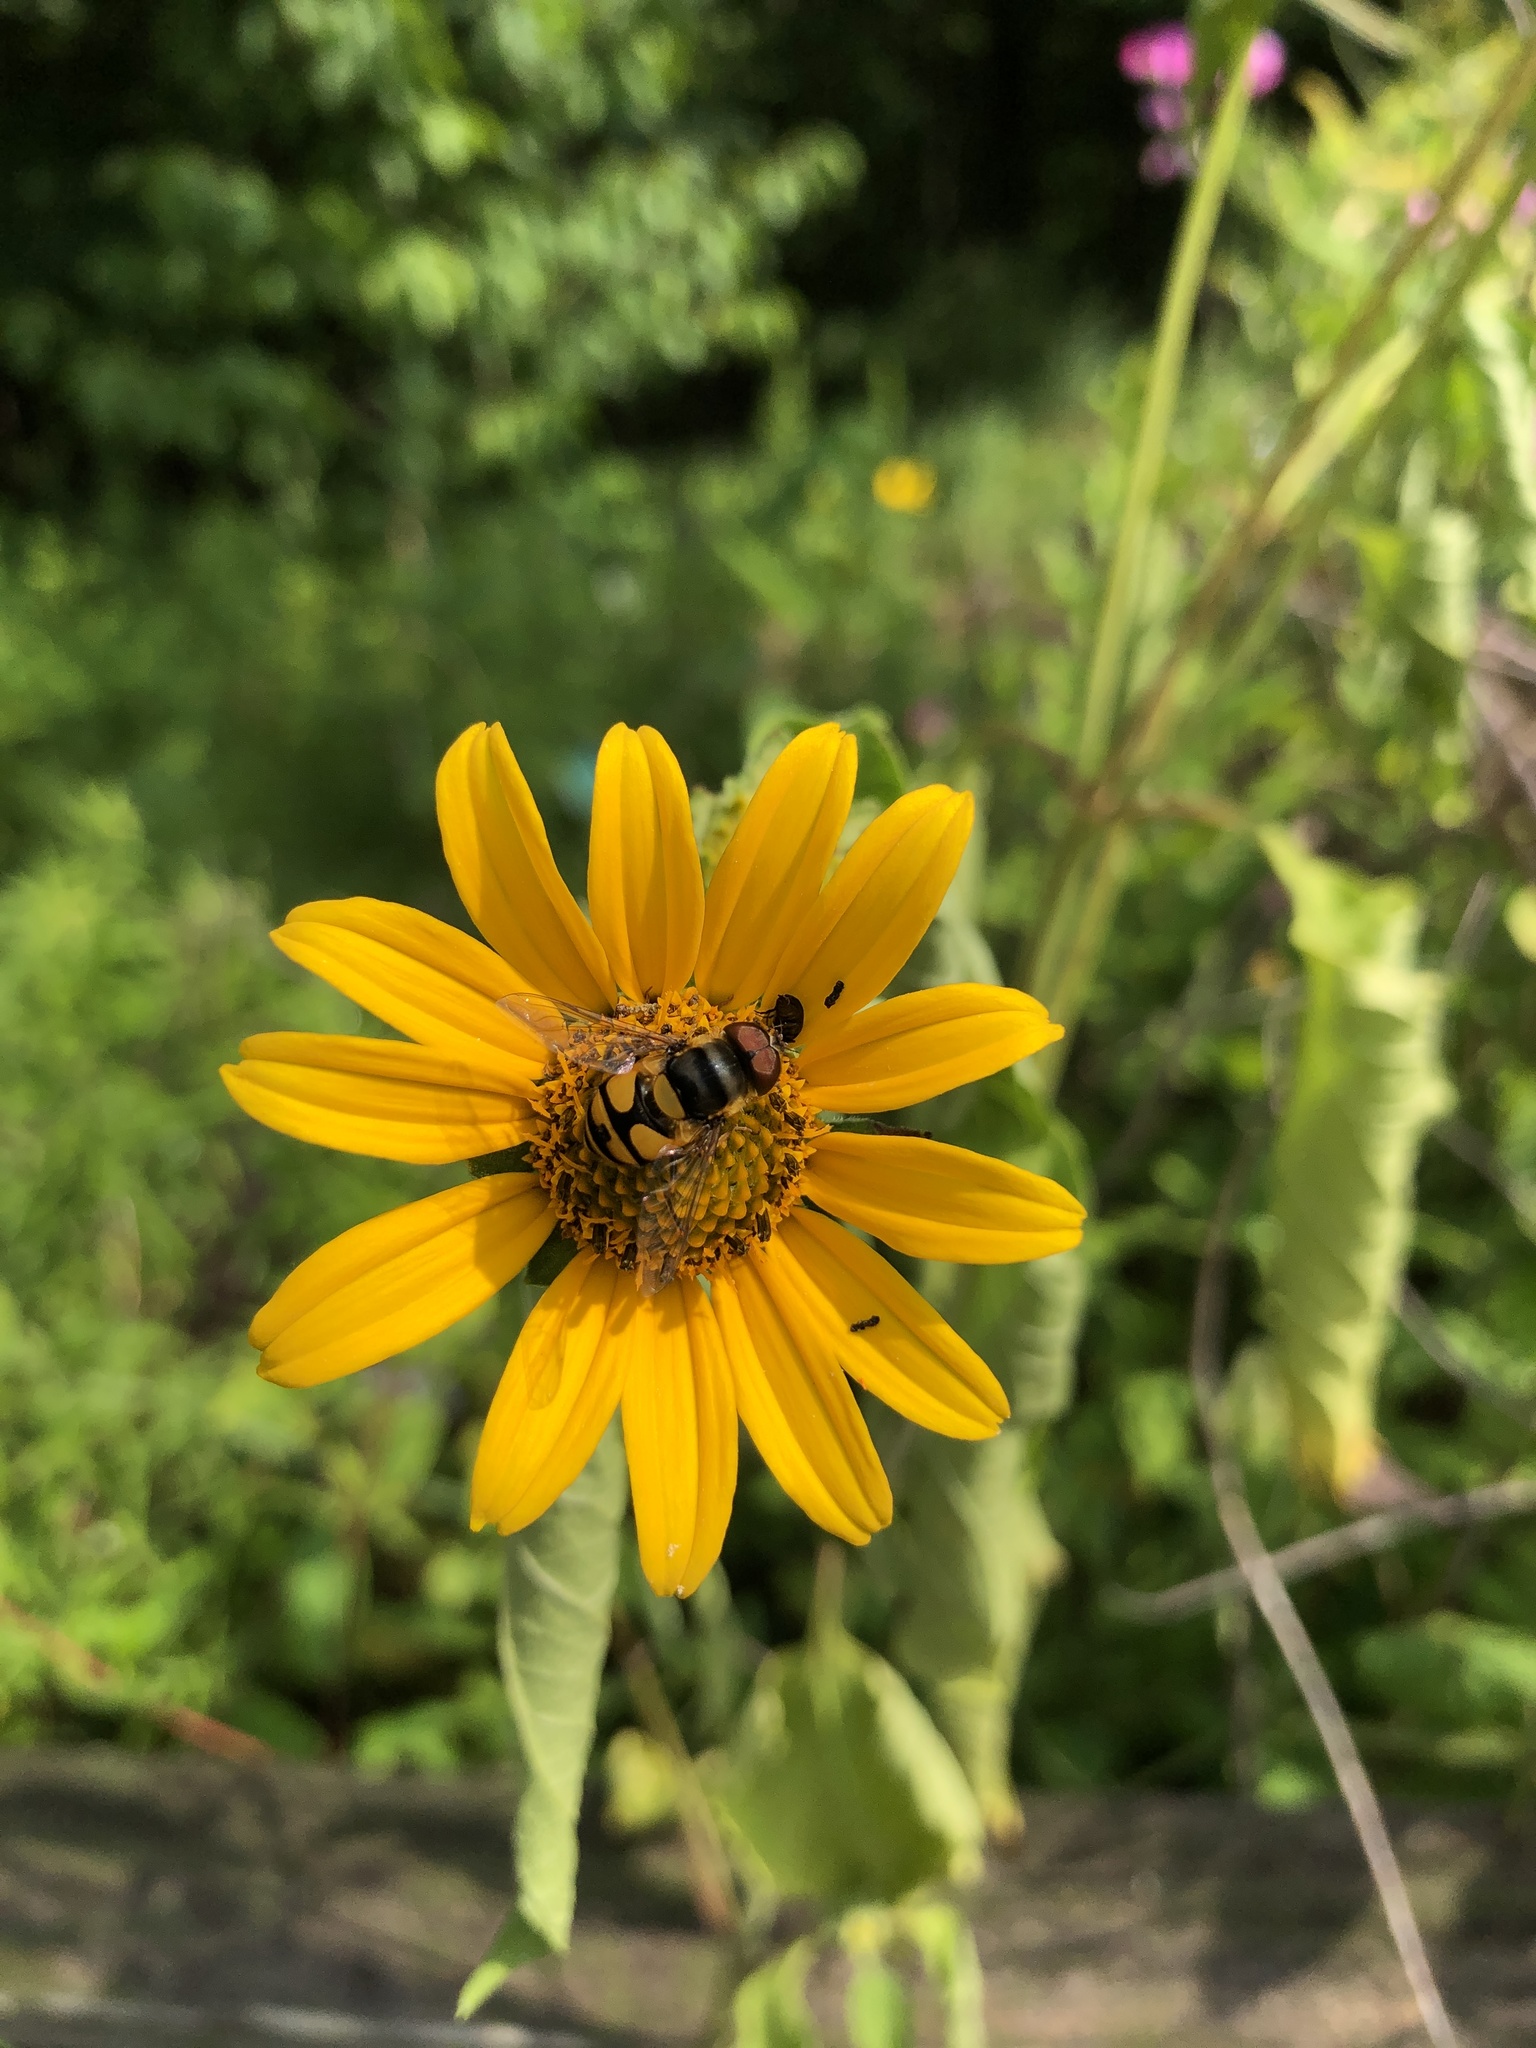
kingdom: Animalia
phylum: Arthropoda
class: Insecta
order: Diptera
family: Syrphidae
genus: Eristalis
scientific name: Eristalis transversa
